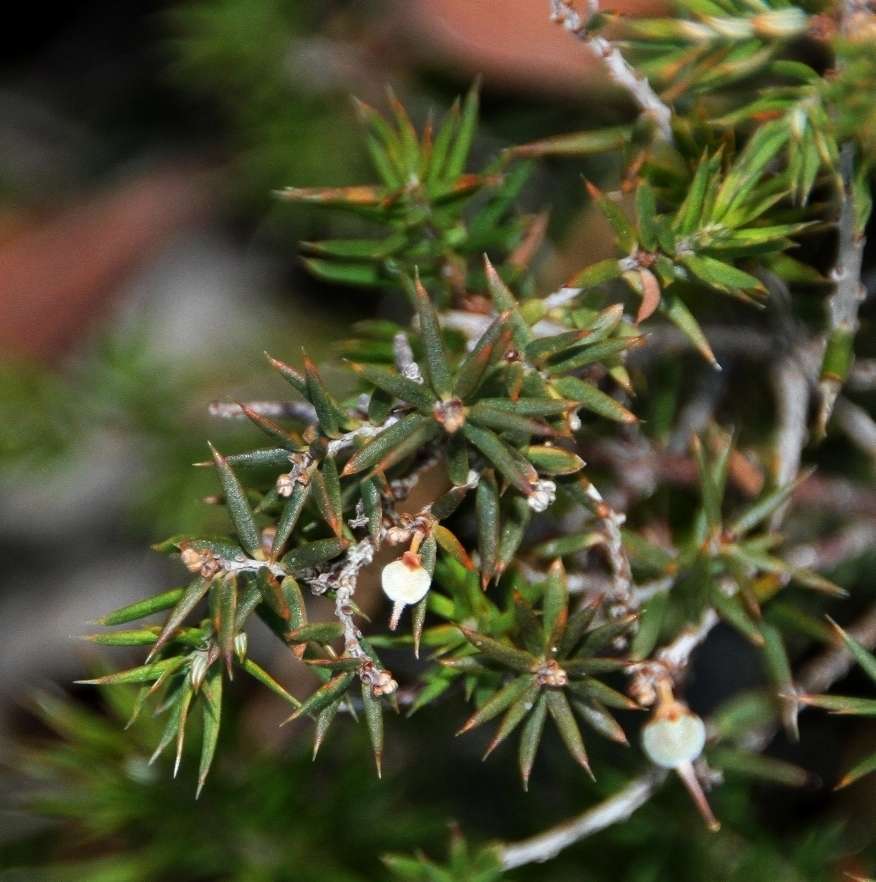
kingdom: Plantae
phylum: Tracheophyta
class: Magnoliopsida
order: Ericales
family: Ericaceae
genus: Acrotriche
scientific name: Acrotriche serrulata
